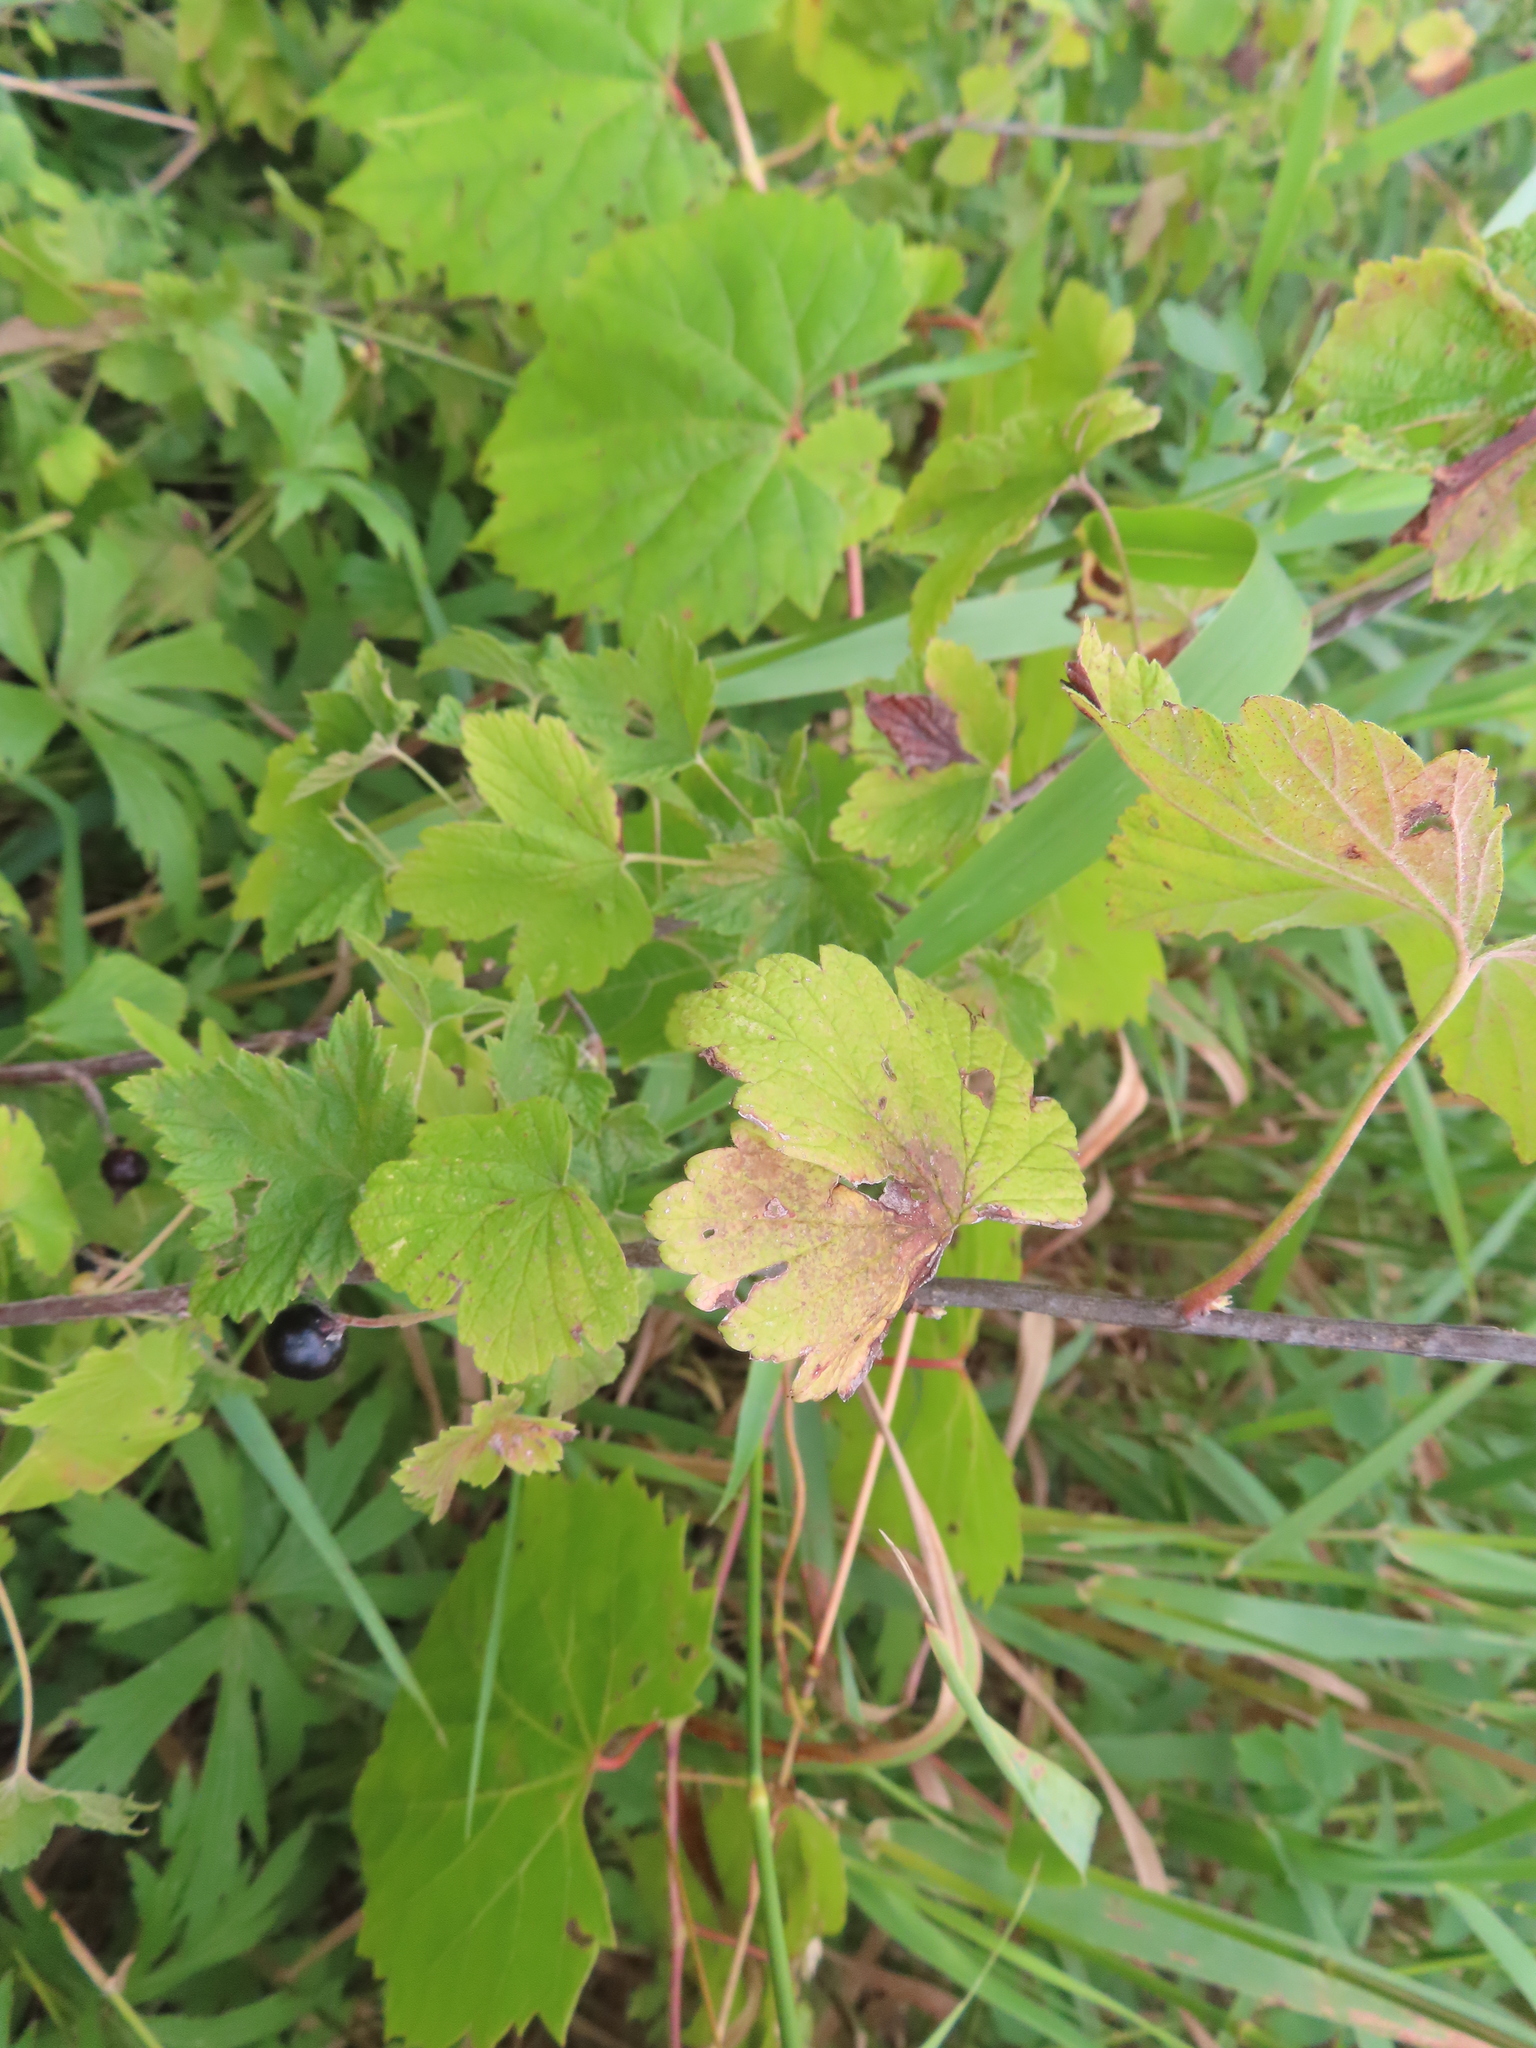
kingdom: Plantae
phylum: Tracheophyta
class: Magnoliopsida
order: Saxifragales
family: Grossulariaceae
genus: Ribes
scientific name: Ribes americanum
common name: American black currant
